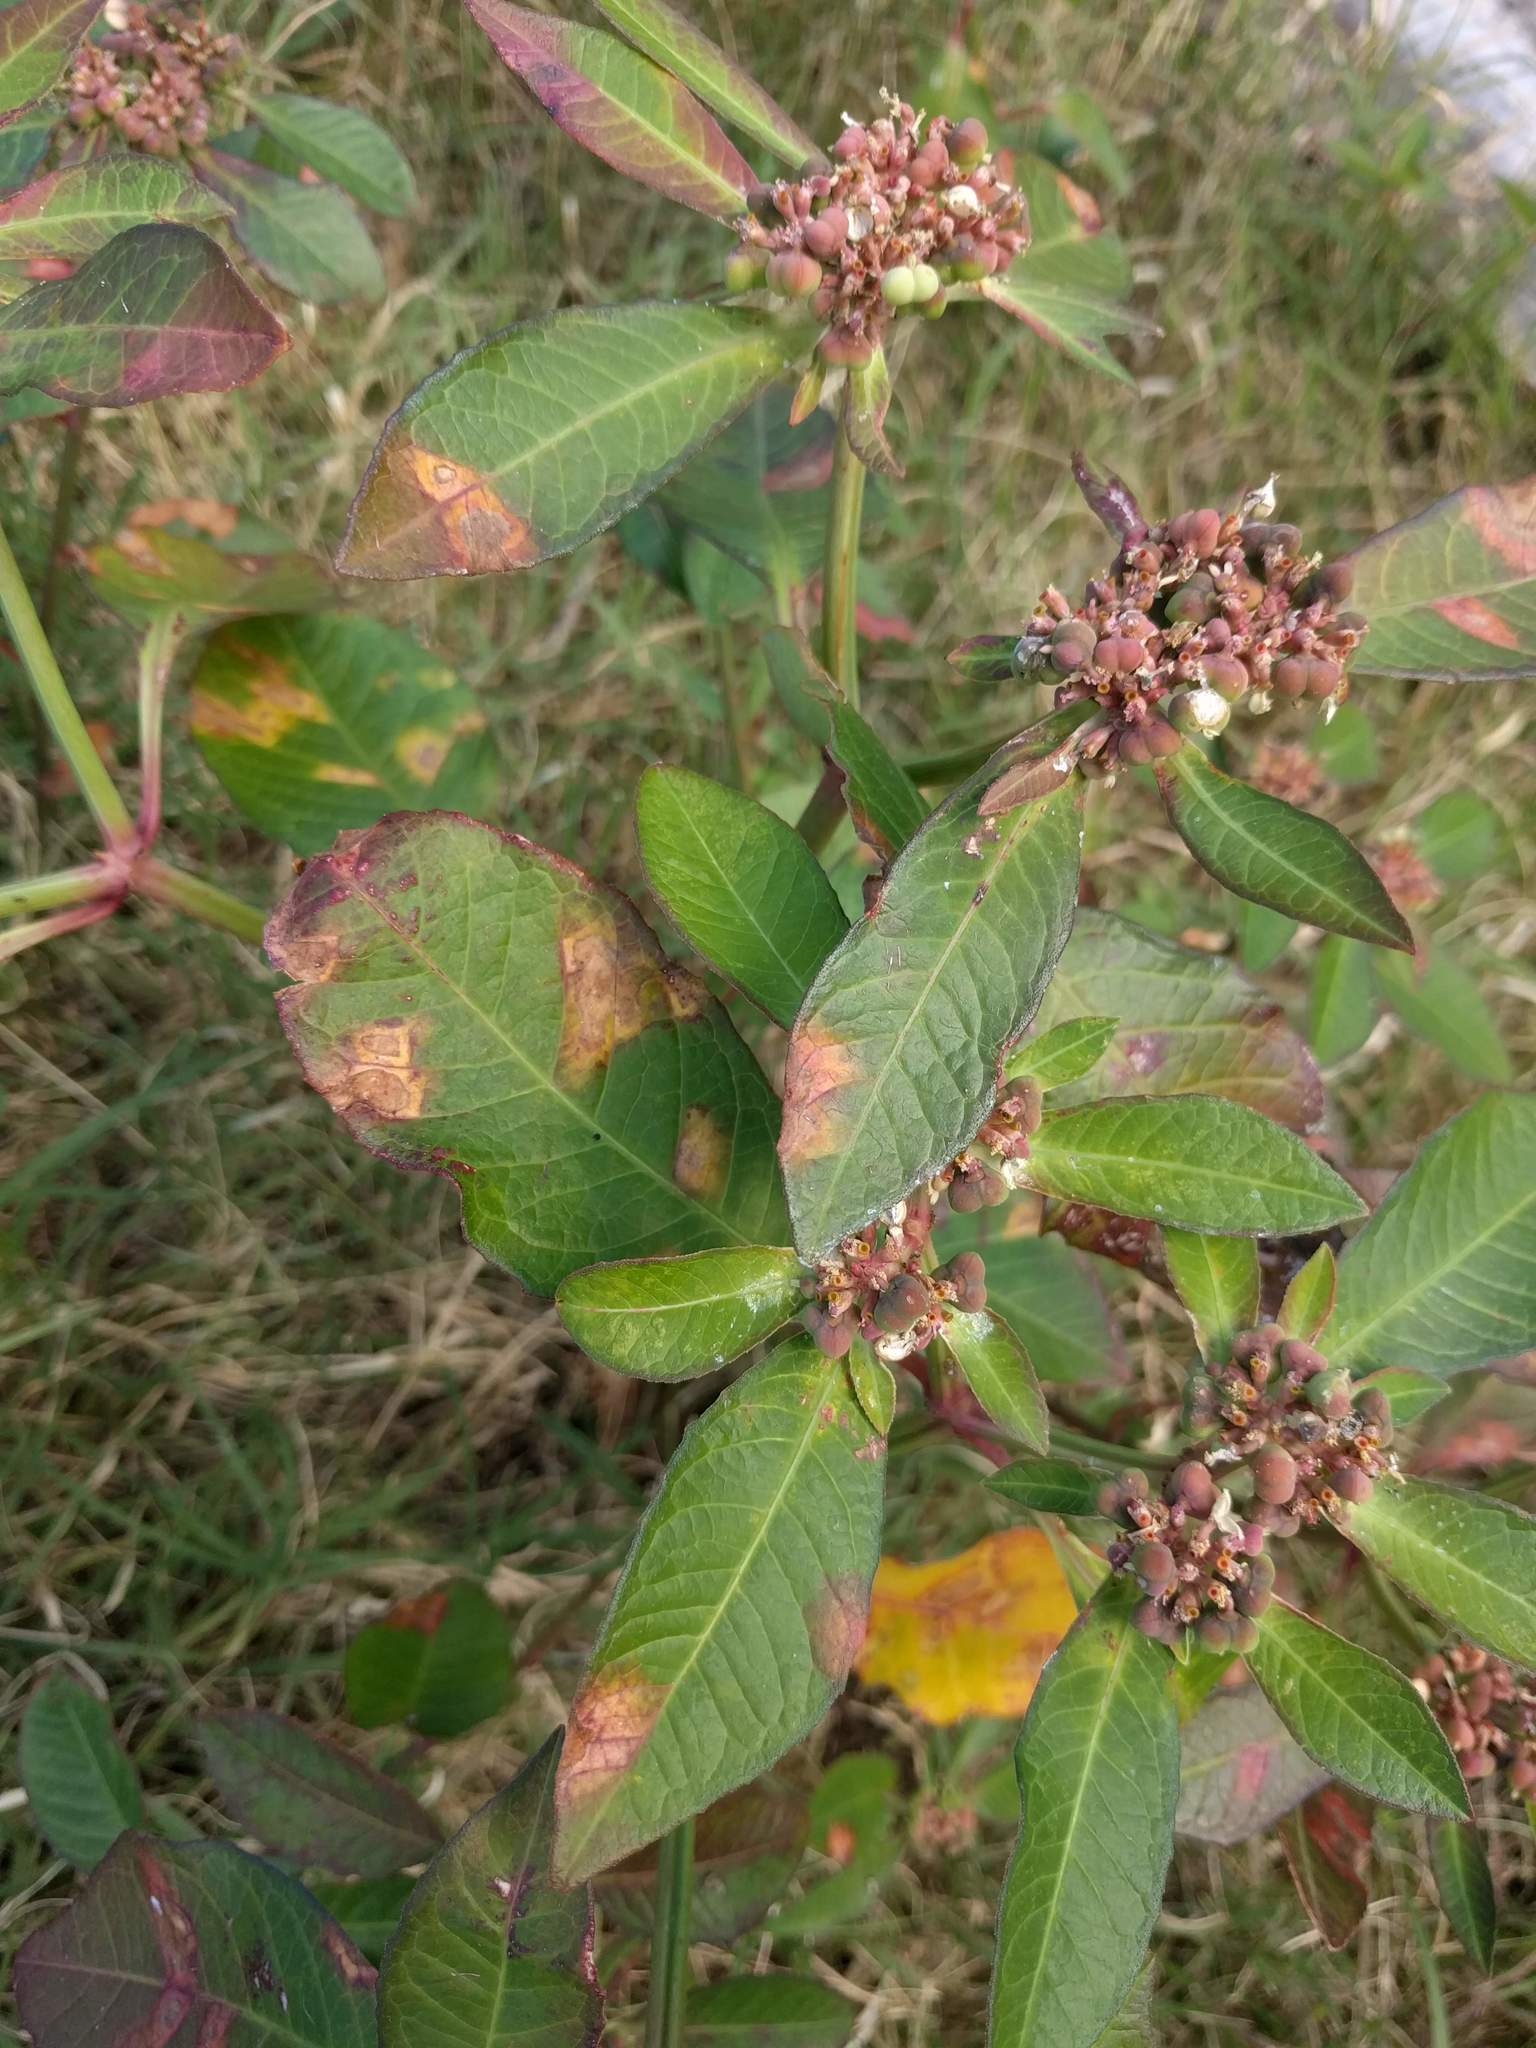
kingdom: Plantae
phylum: Tracheophyta
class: Magnoliopsida
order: Malpighiales
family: Euphorbiaceae
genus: Euphorbia
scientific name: Euphorbia heterophylla
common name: Mexican fireplant
